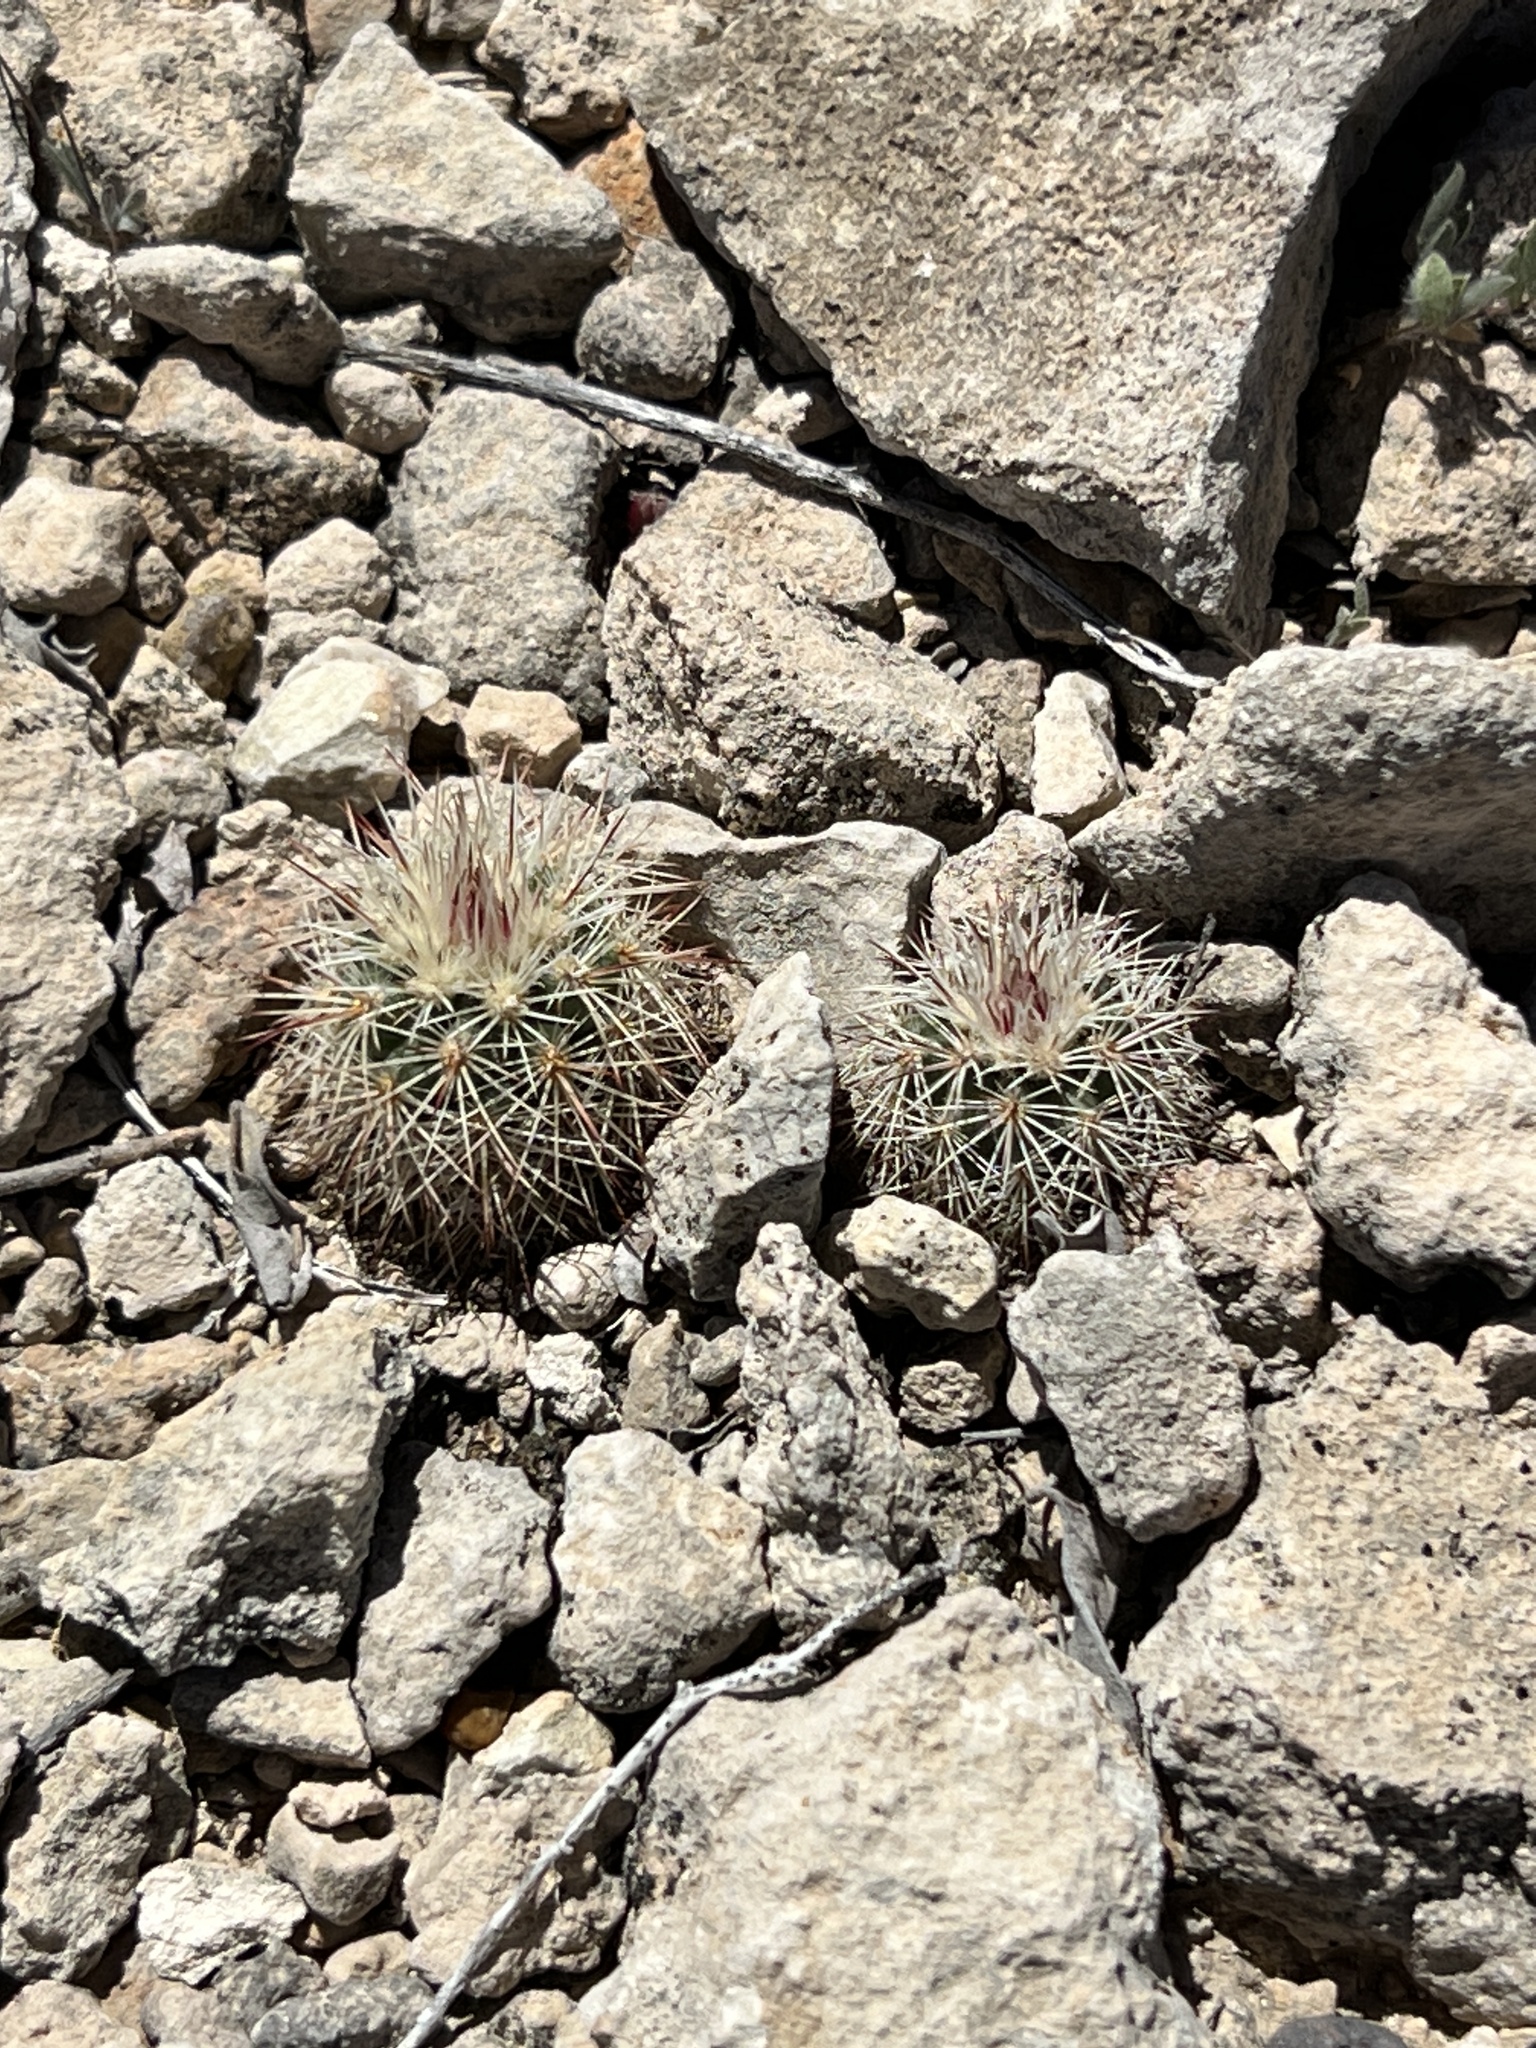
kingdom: Plantae
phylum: Tracheophyta
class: Magnoliopsida
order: Caryophyllales
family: Cactaceae
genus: Echinocereus
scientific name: Echinocereus dasyacanthus
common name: Spiny hedgehog cactus
